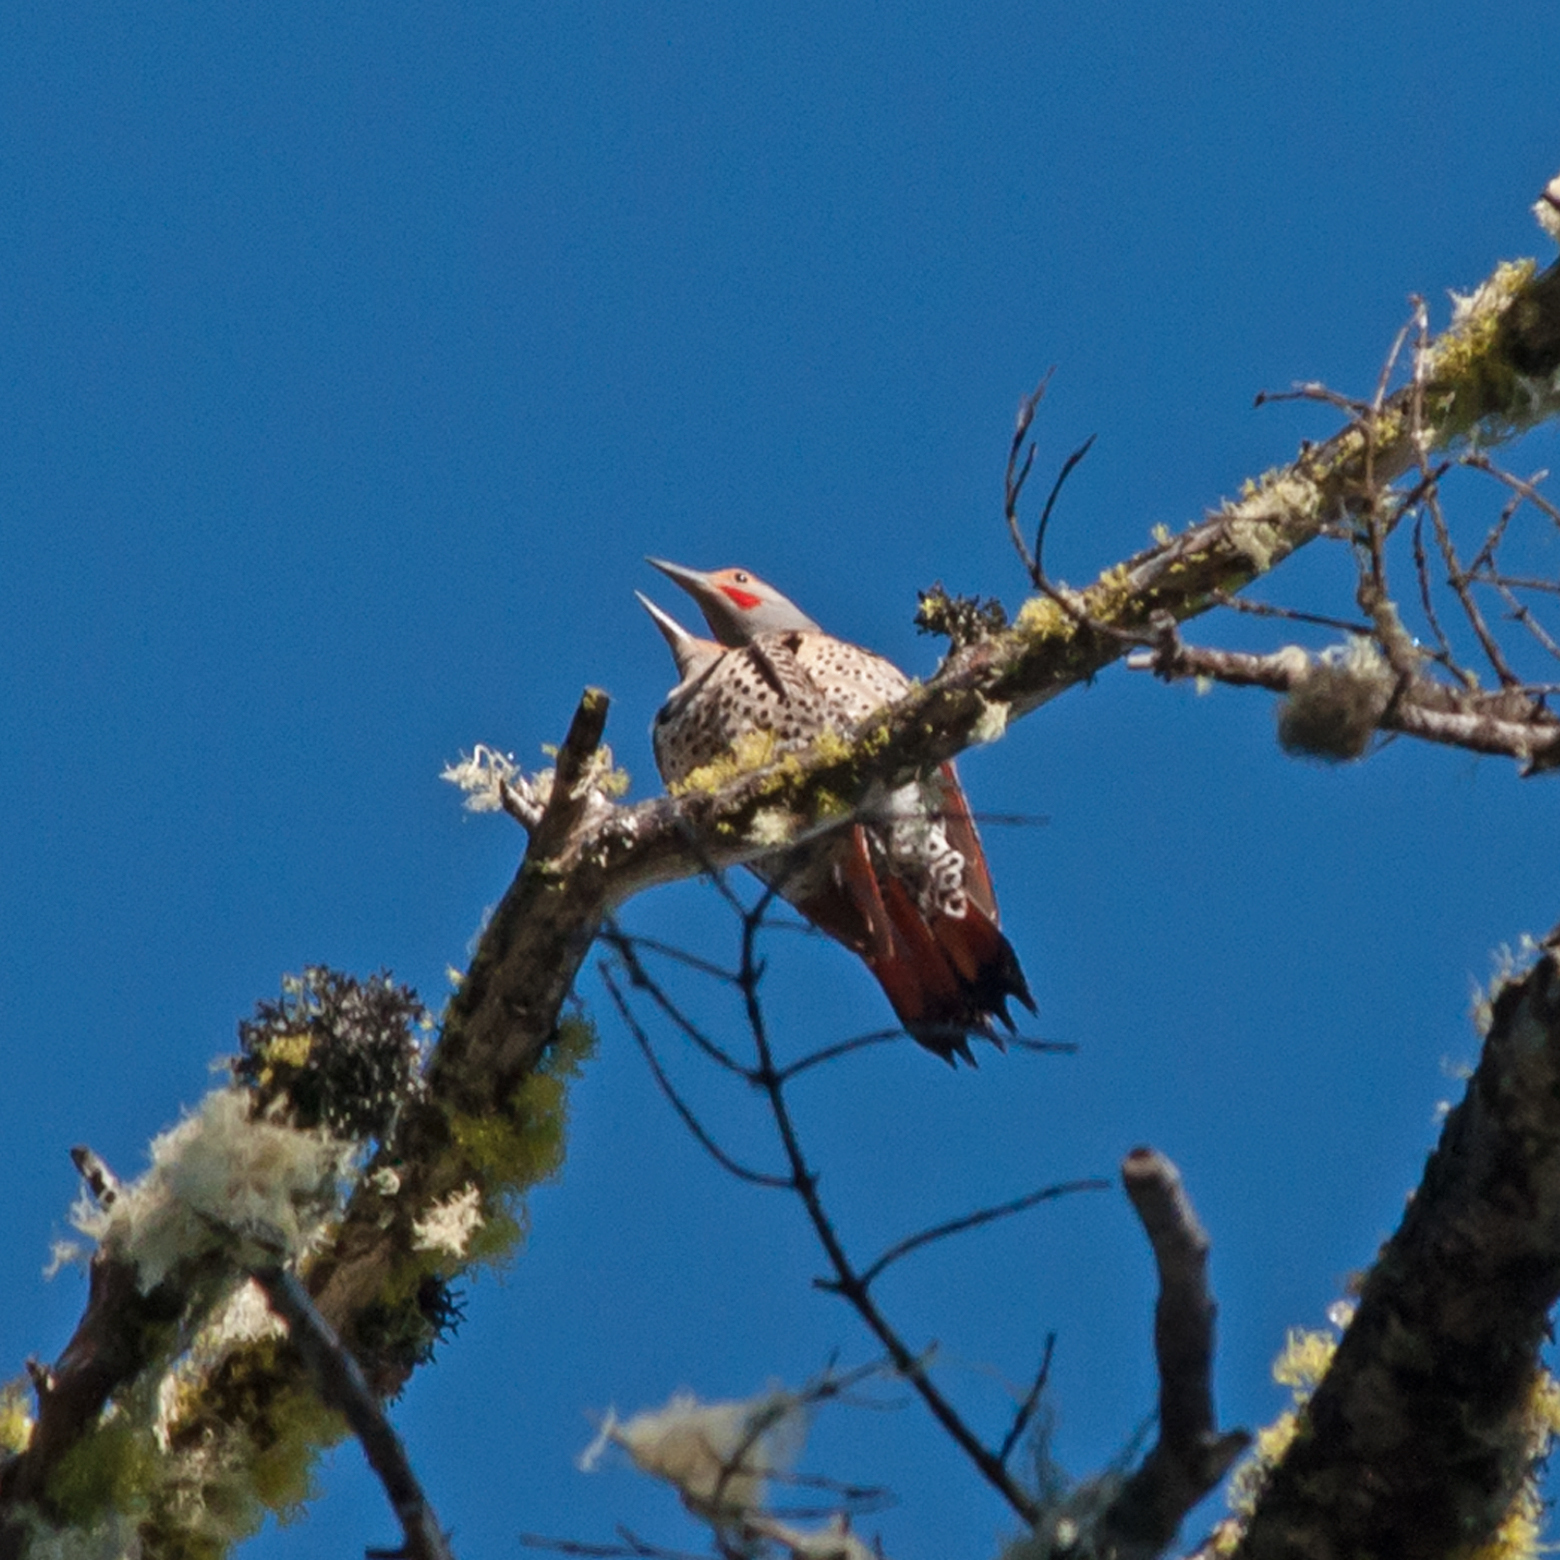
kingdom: Animalia
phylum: Chordata
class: Aves
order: Piciformes
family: Picidae
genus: Colaptes
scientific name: Colaptes auratus
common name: Northern flicker
